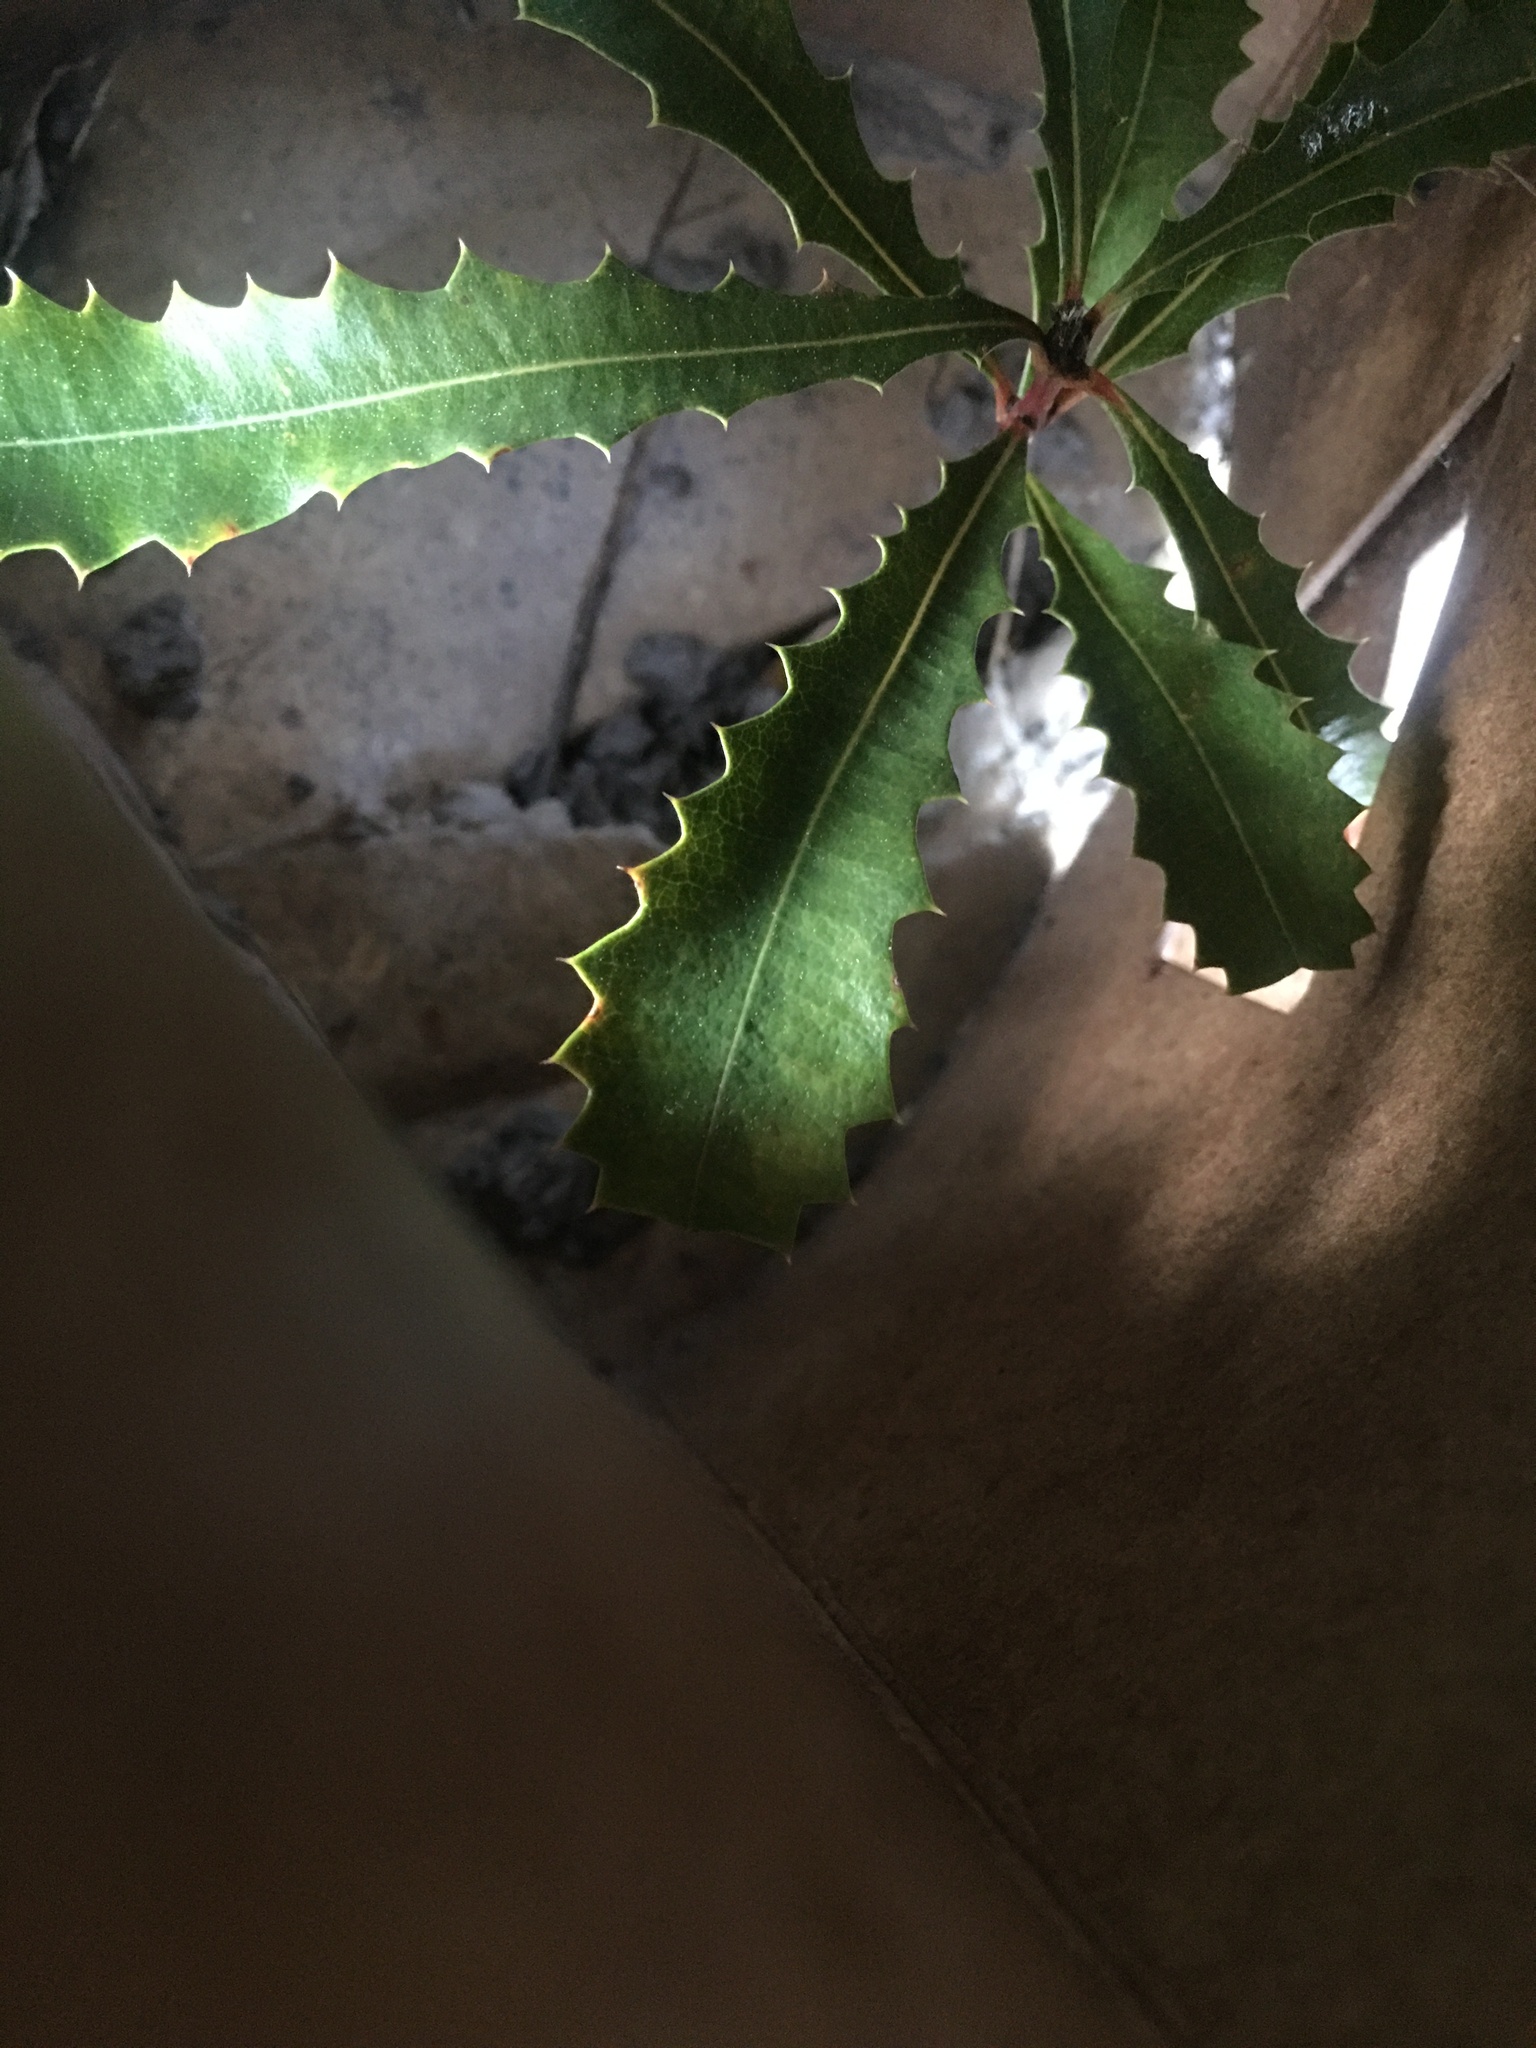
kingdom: Plantae
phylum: Tracheophyta
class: Magnoliopsida
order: Malvales
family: Malvaceae
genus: Hoheria
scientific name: Hoheria angustifolia
